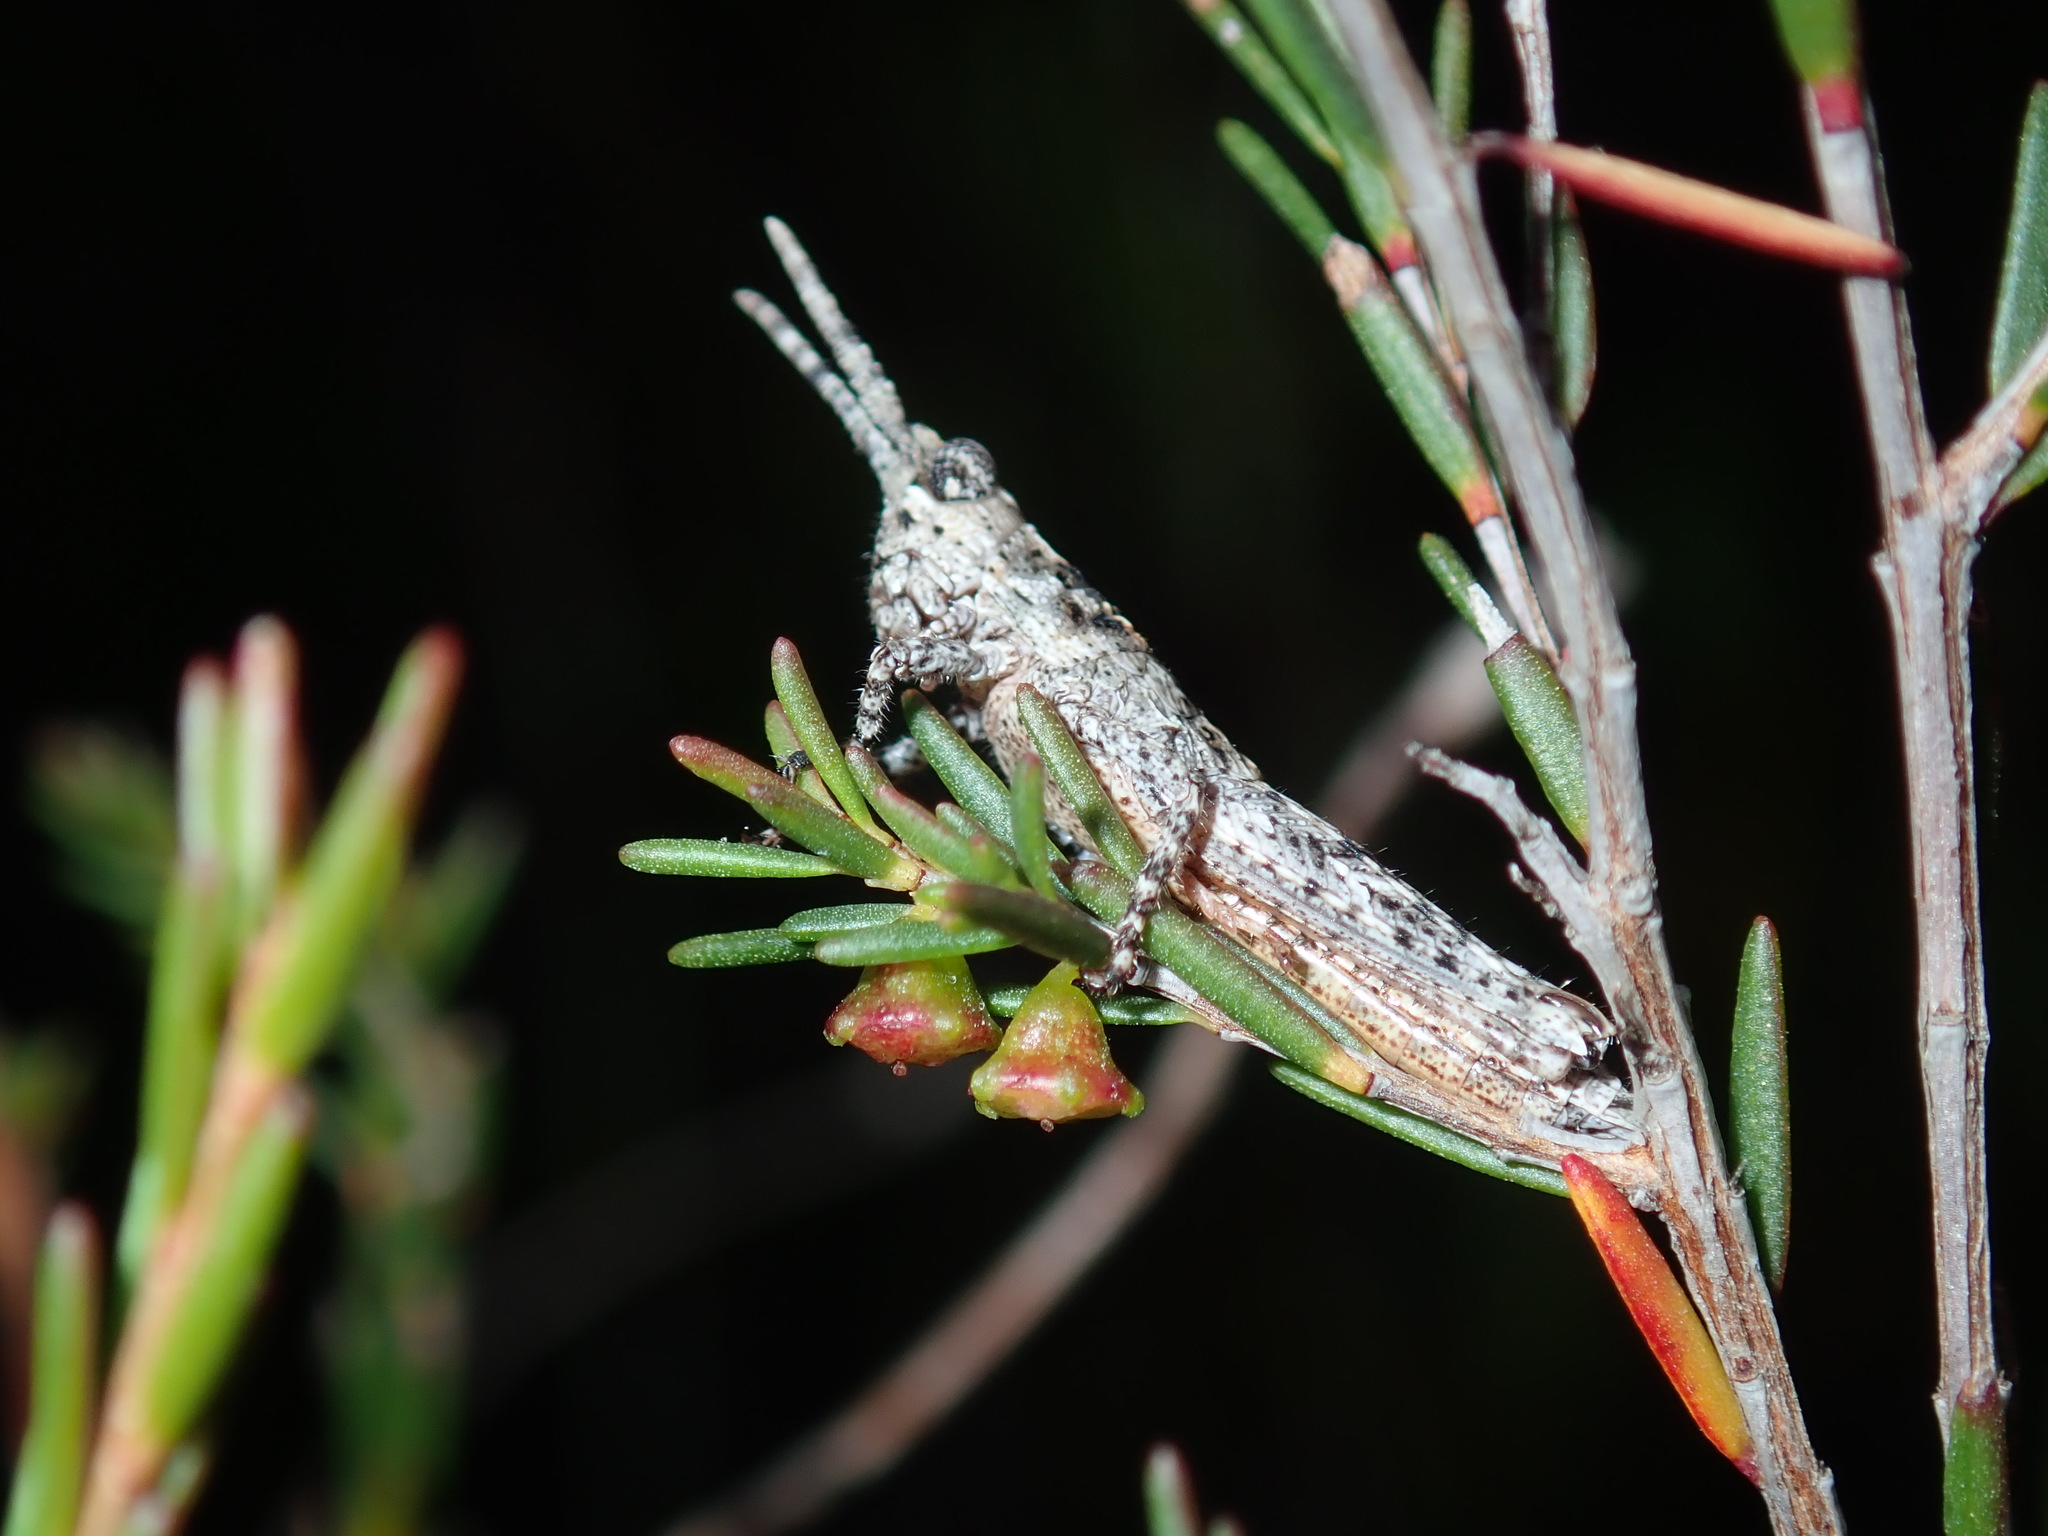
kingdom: Animalia
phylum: Arthropoda
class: Insecta
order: Orthoptera
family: Acrididae
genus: Coryphistes
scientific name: Coryphistes ruricola
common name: Bark-mimicking grasshopper
